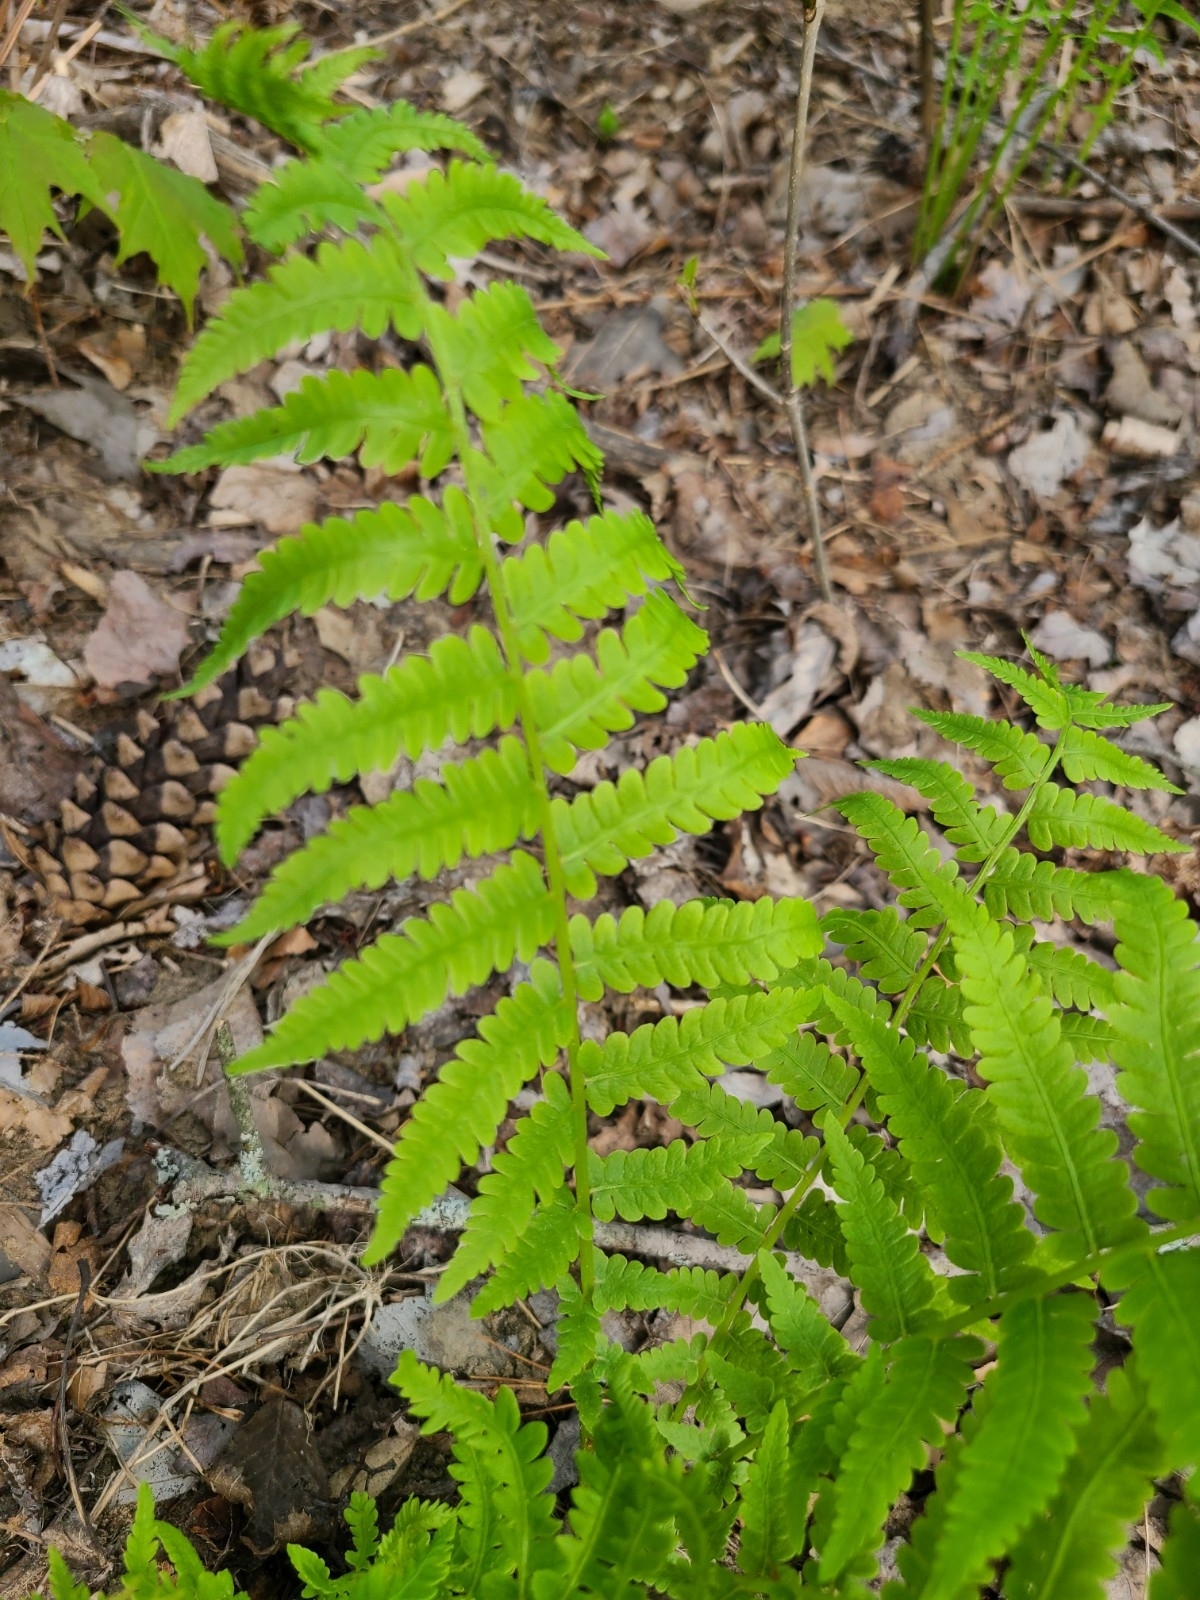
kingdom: Plantae
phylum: Tracheophyta
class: Polypodiopsida
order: Polypodiales
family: Onocleaceae
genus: Matteuccia
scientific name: Matteuccia struthiopteris
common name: Ostrich fern
